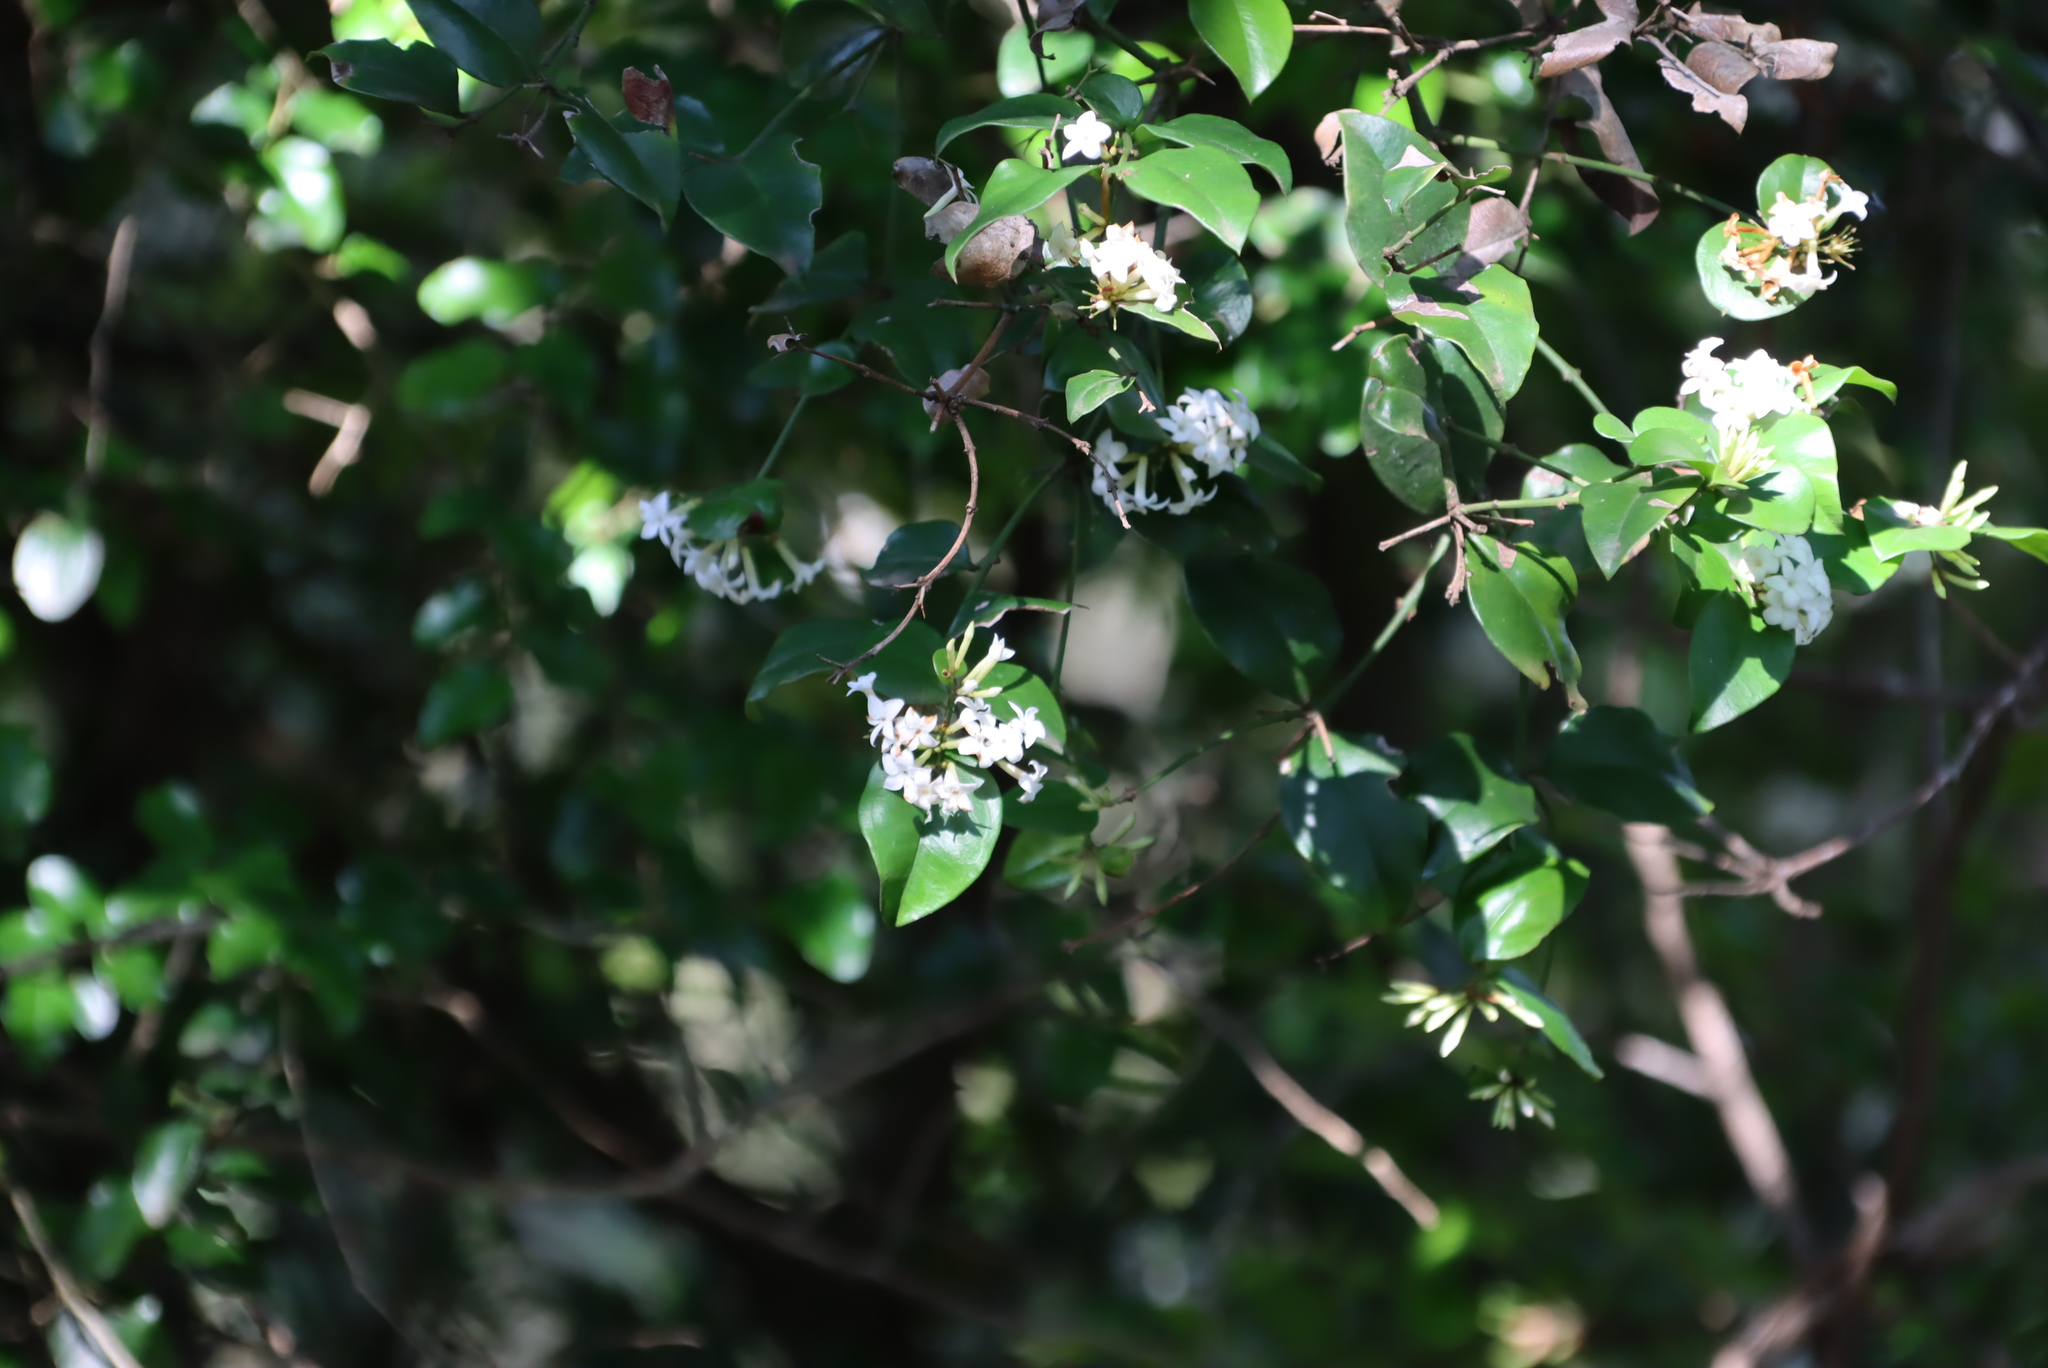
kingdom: Plantae
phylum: Tracheophyta
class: Magnoliopsida
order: Gentianales
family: Apocynaceae
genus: Carissa
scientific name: Carissa bispinosa
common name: Forest num-num
